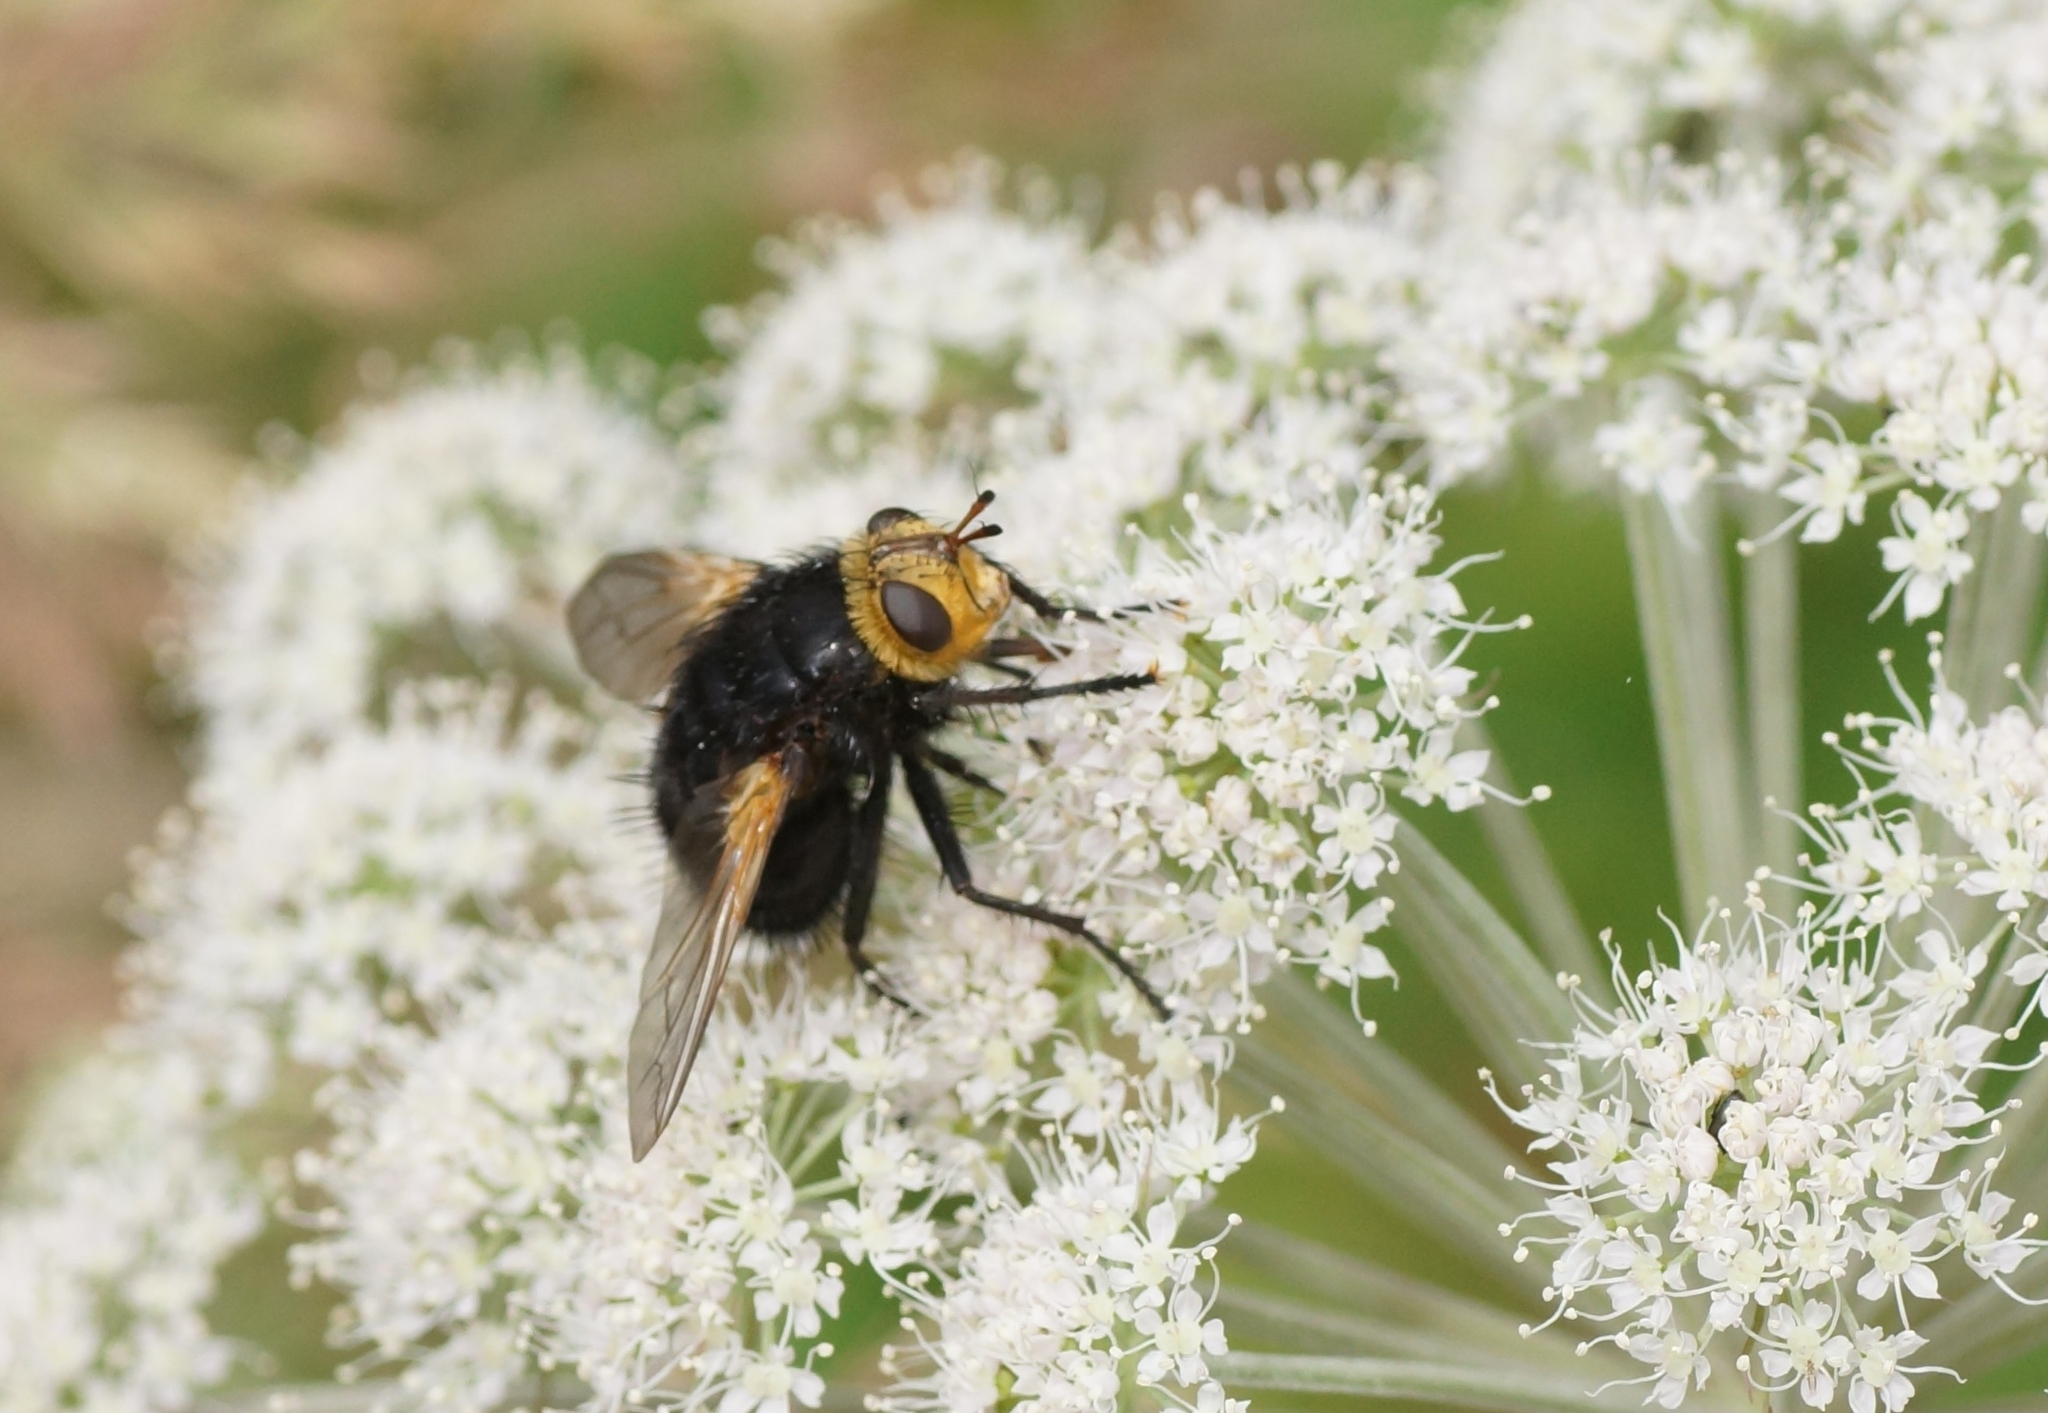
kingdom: Animalia
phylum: Arthropoda
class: Insecta
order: Diptera
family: Tachinidae
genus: Tachina
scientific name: Tachina grossa
